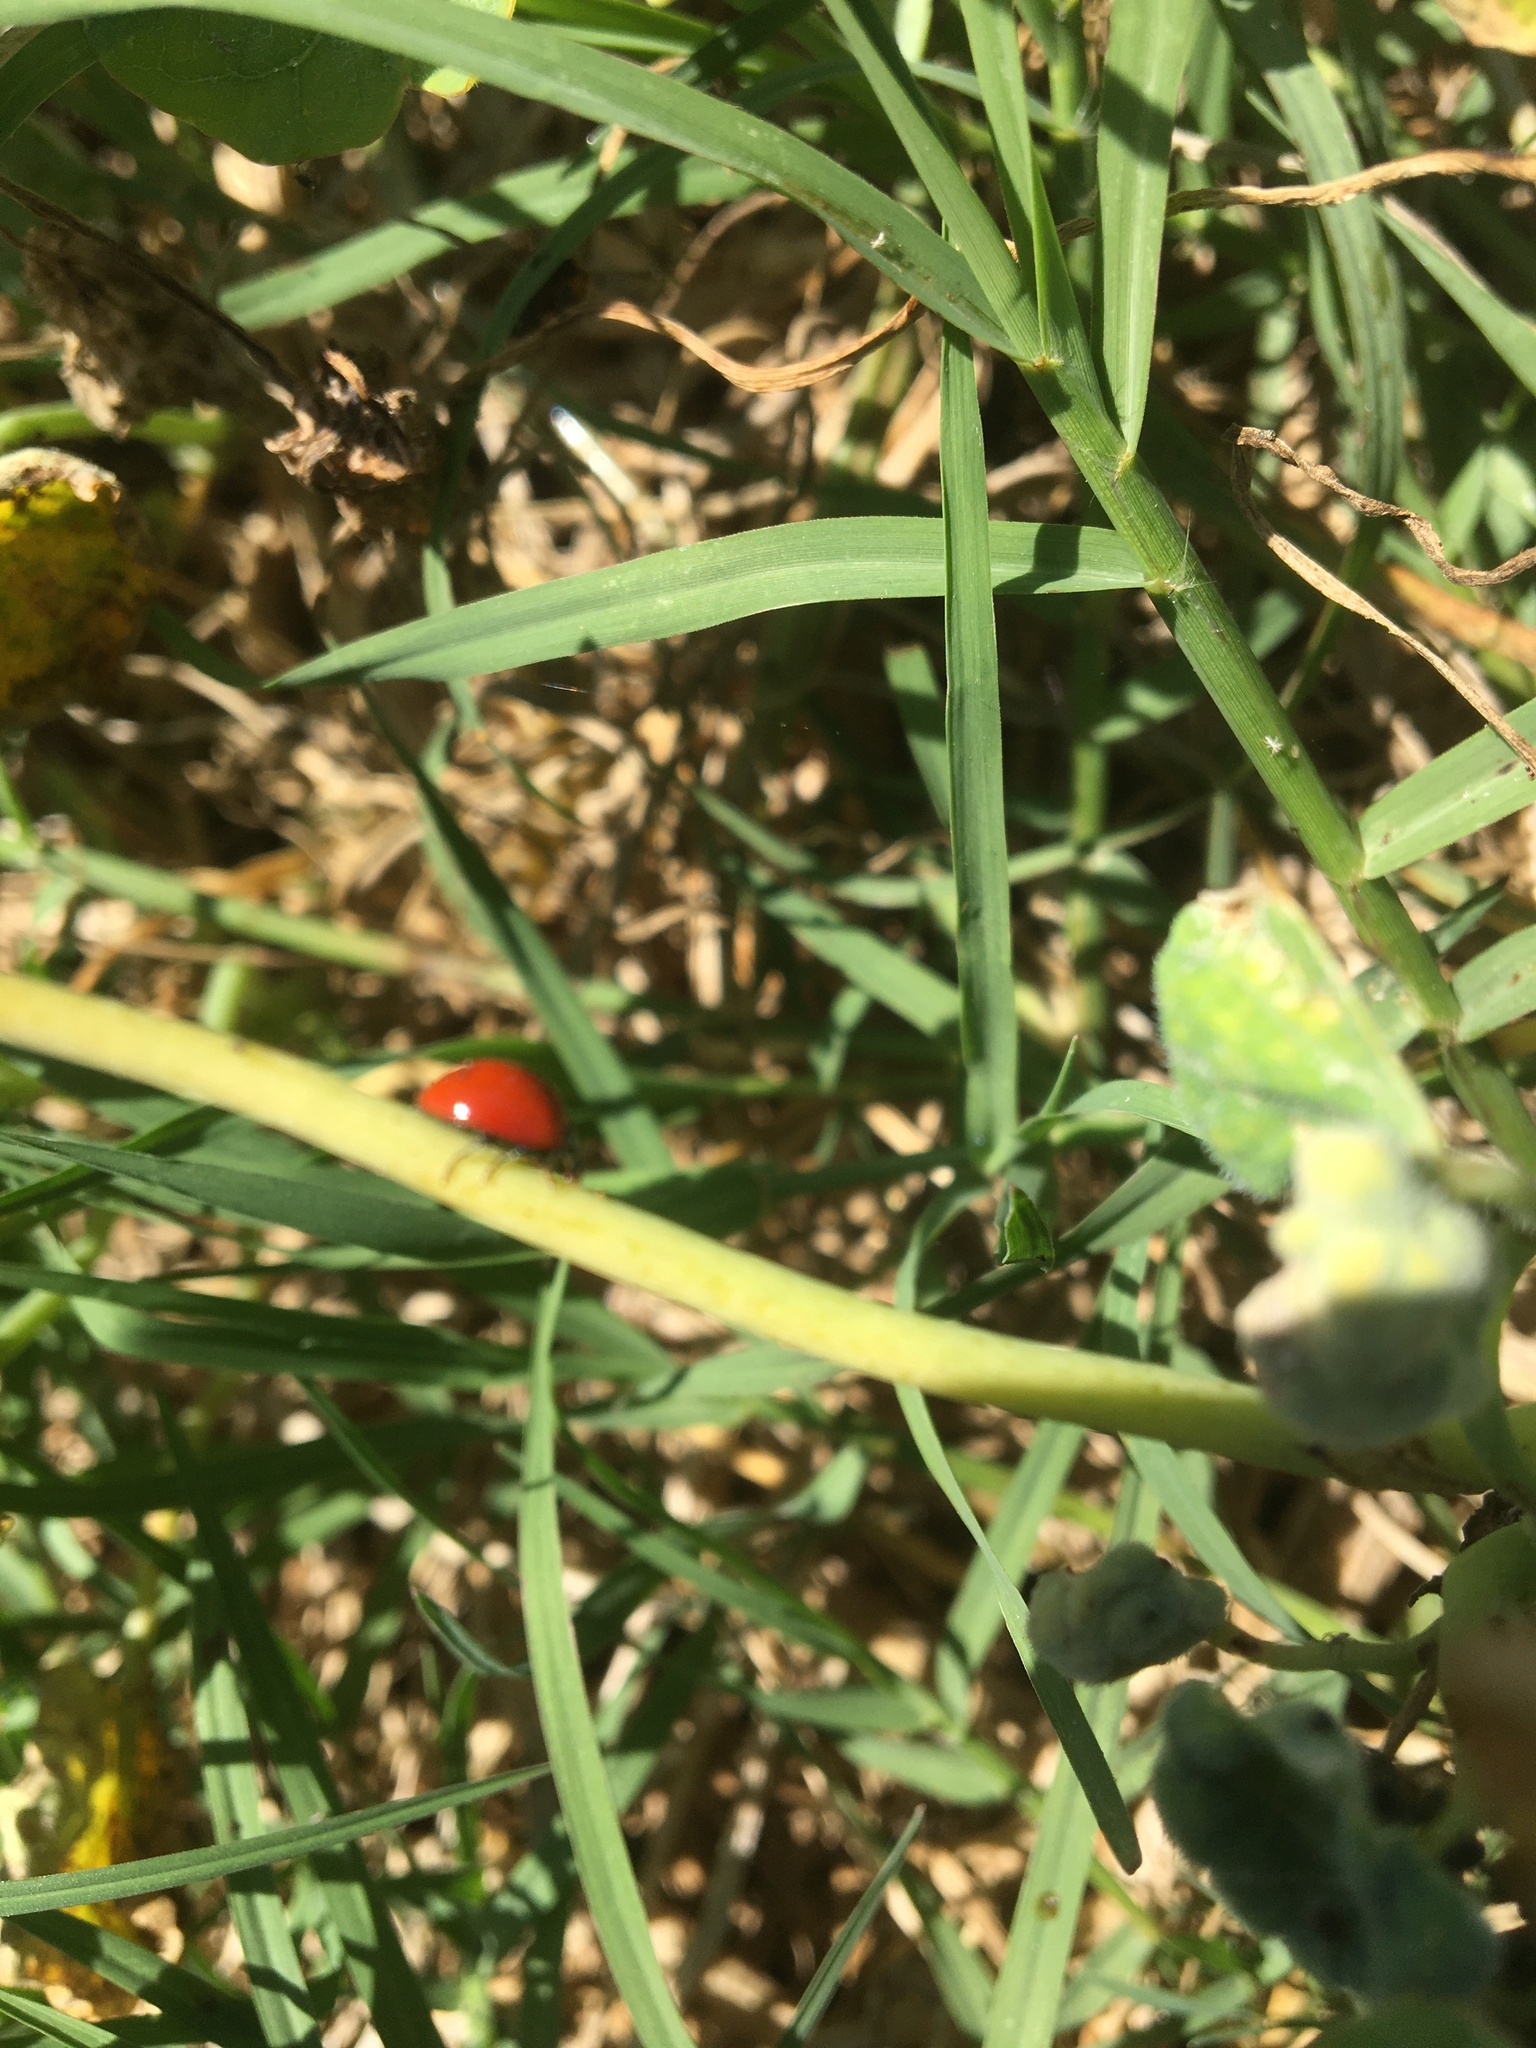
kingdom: Animalia
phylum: Arthropoda
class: Insecta
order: Coleoptera
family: Coccinellidae
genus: Cycloneda
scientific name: Cycloneda
